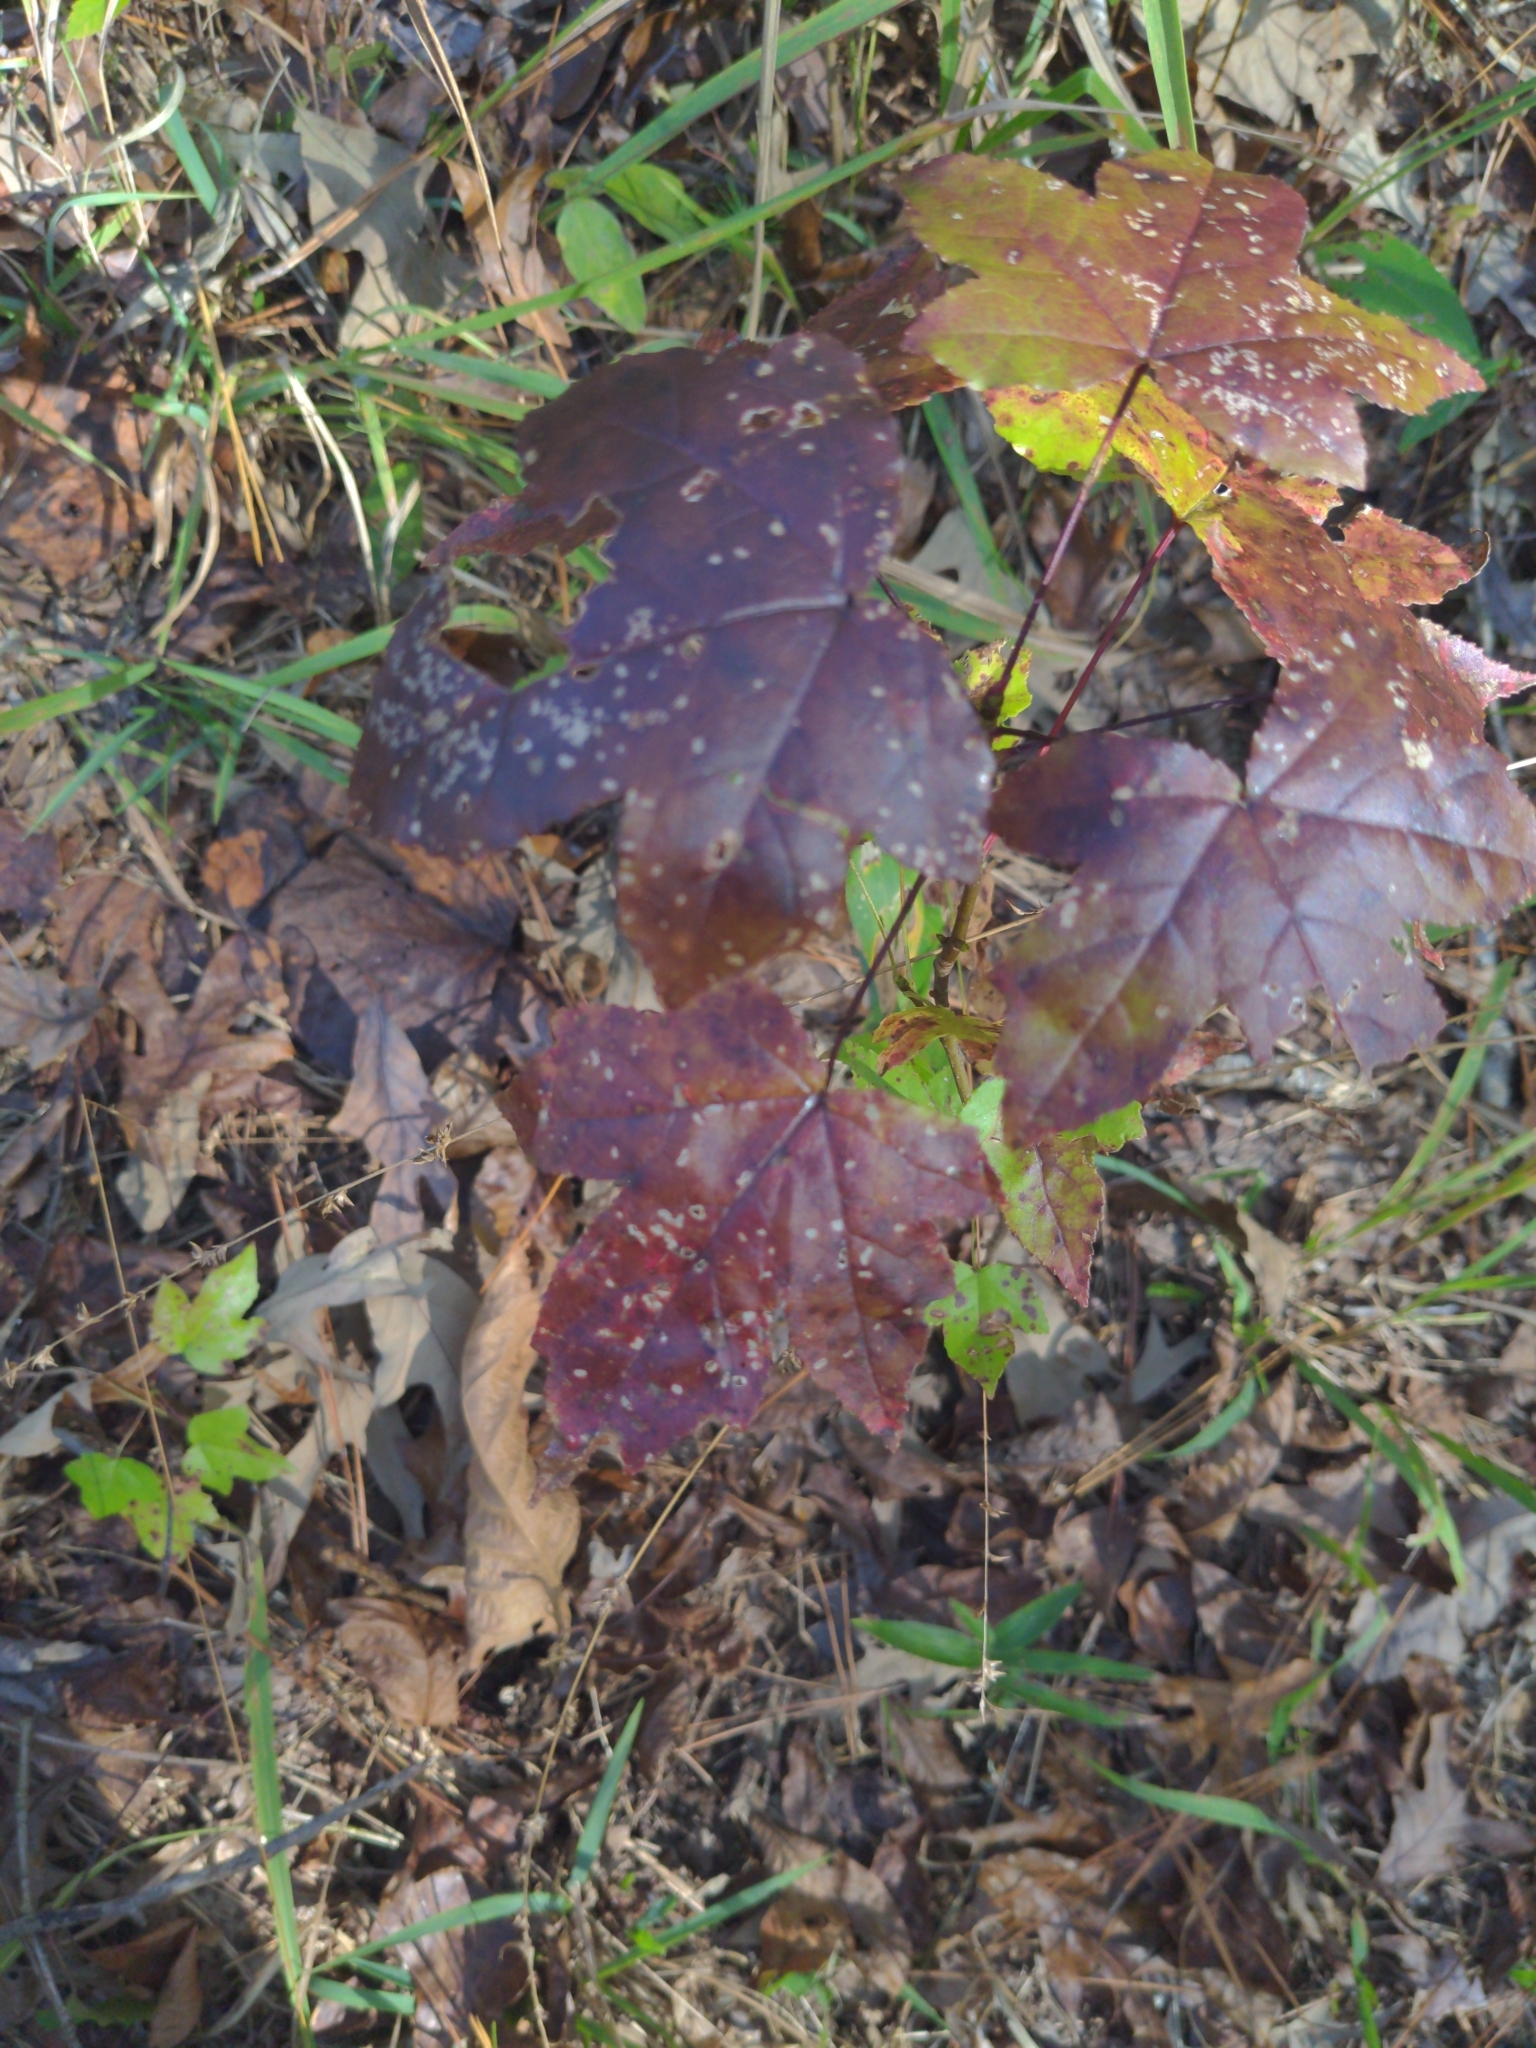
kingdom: Plantae
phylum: Tracheophyta
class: Magnoliopsida
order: Saxifragales
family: Altingiaceae
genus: Liquidambar
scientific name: Liquidambar styraciflua
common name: Sweet gum
